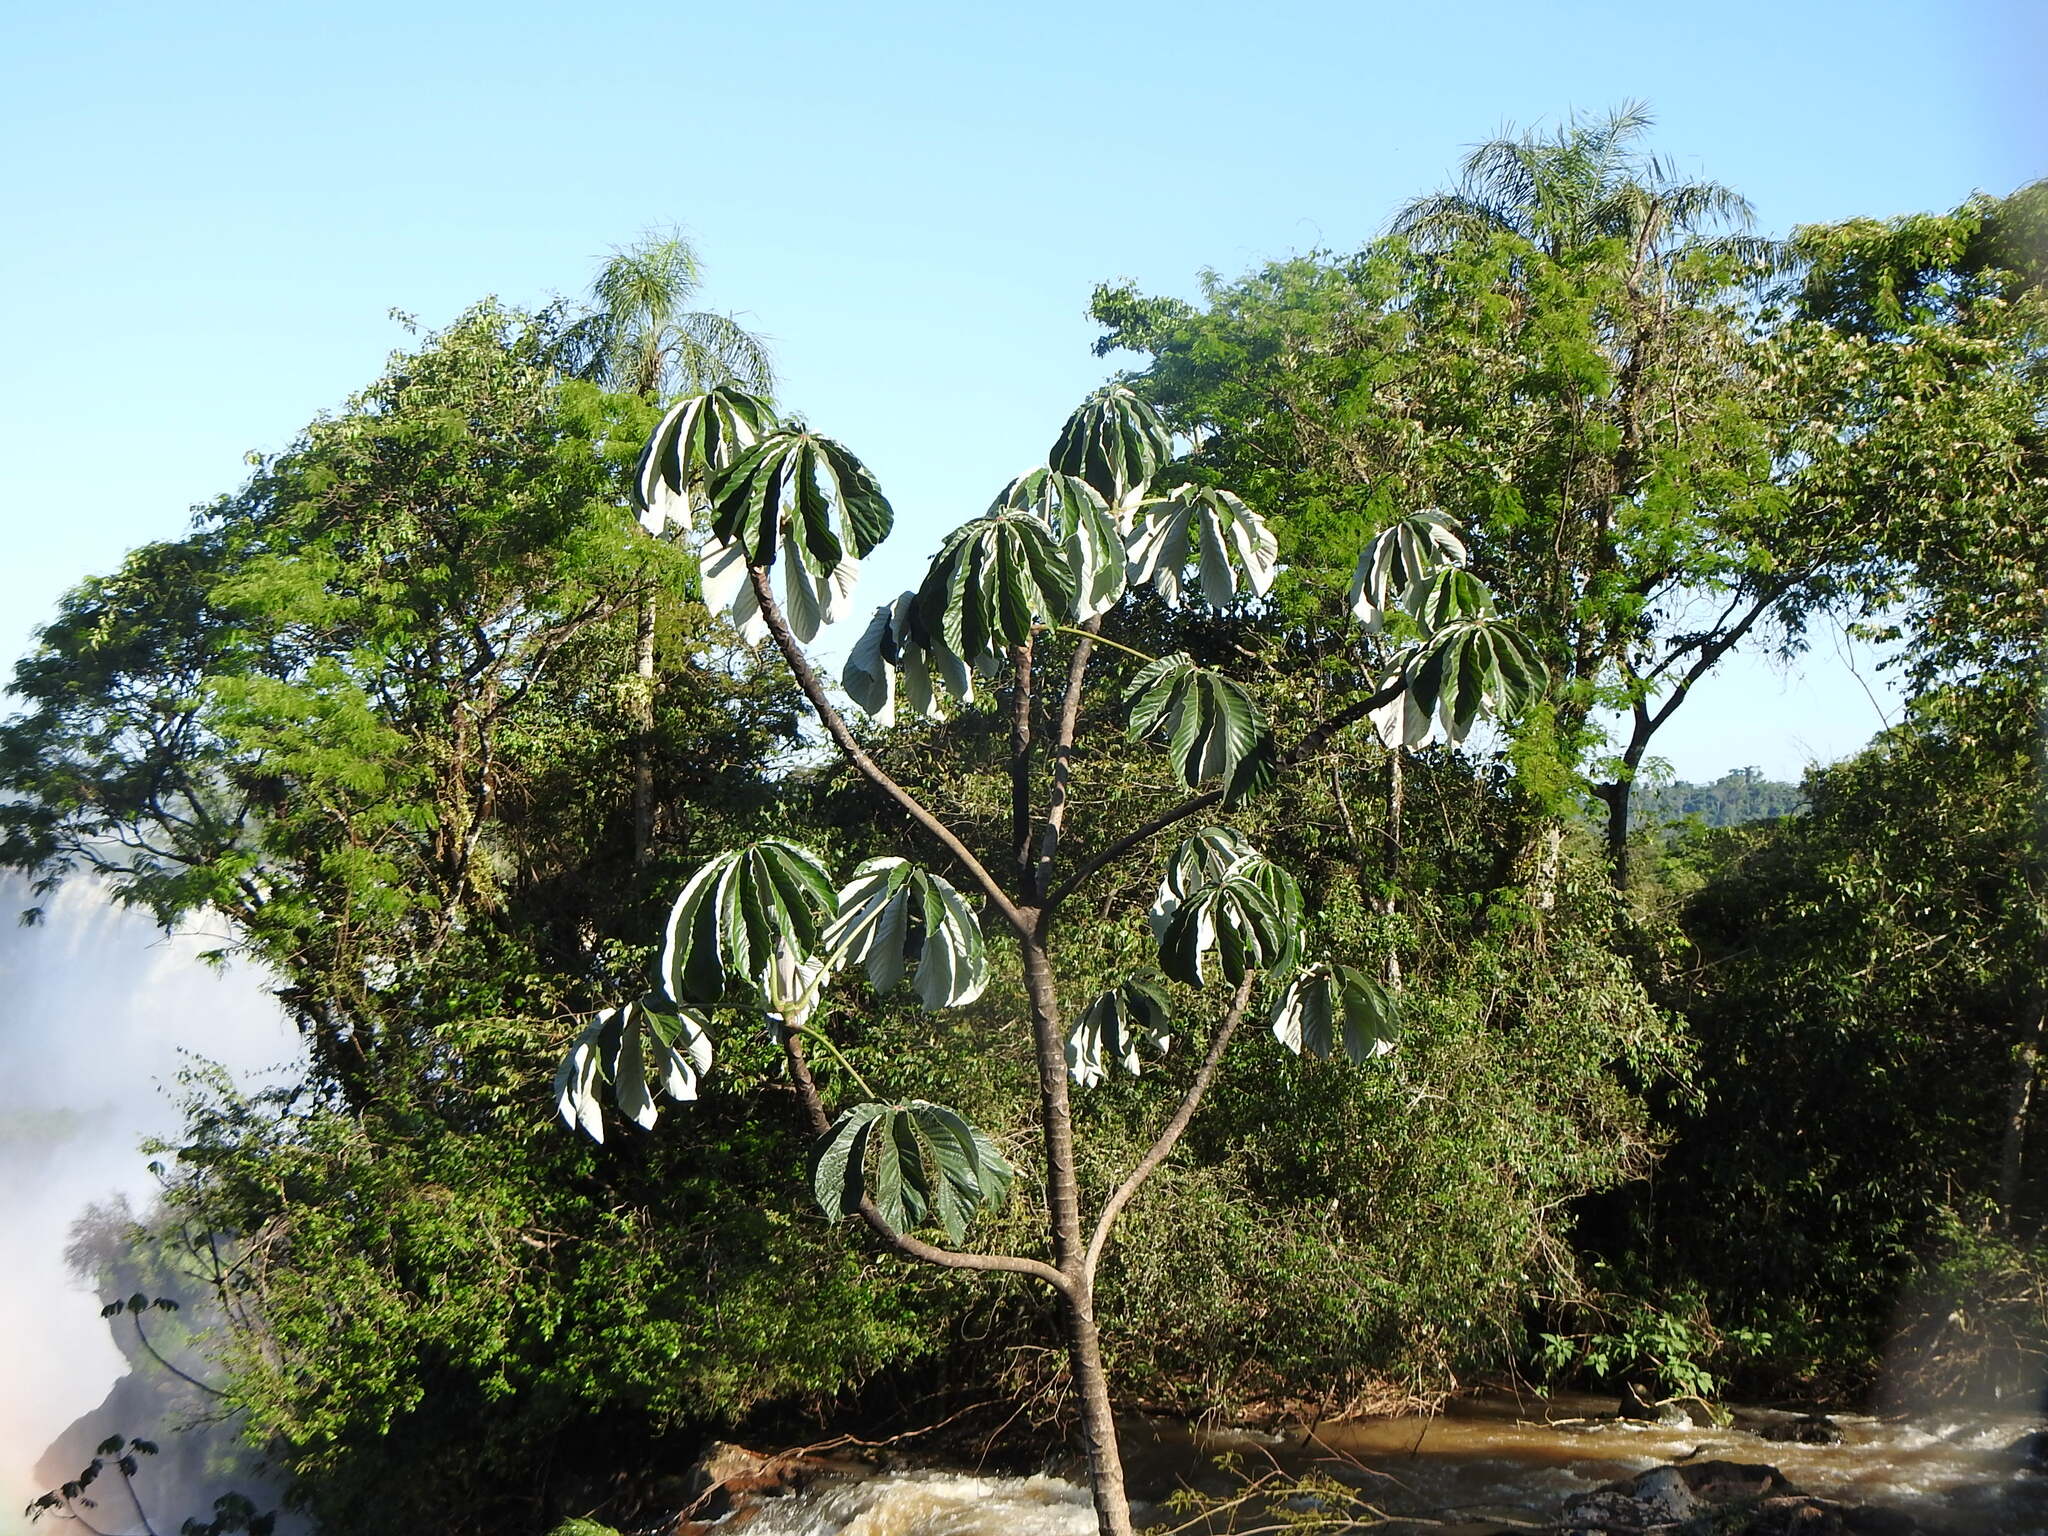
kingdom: Plantae
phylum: Tracheophyta
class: Magnoliopsida
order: Rosales
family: Urticaceae
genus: Cecropia
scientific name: Cecropia pachystachya
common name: Ambay pumpwood
